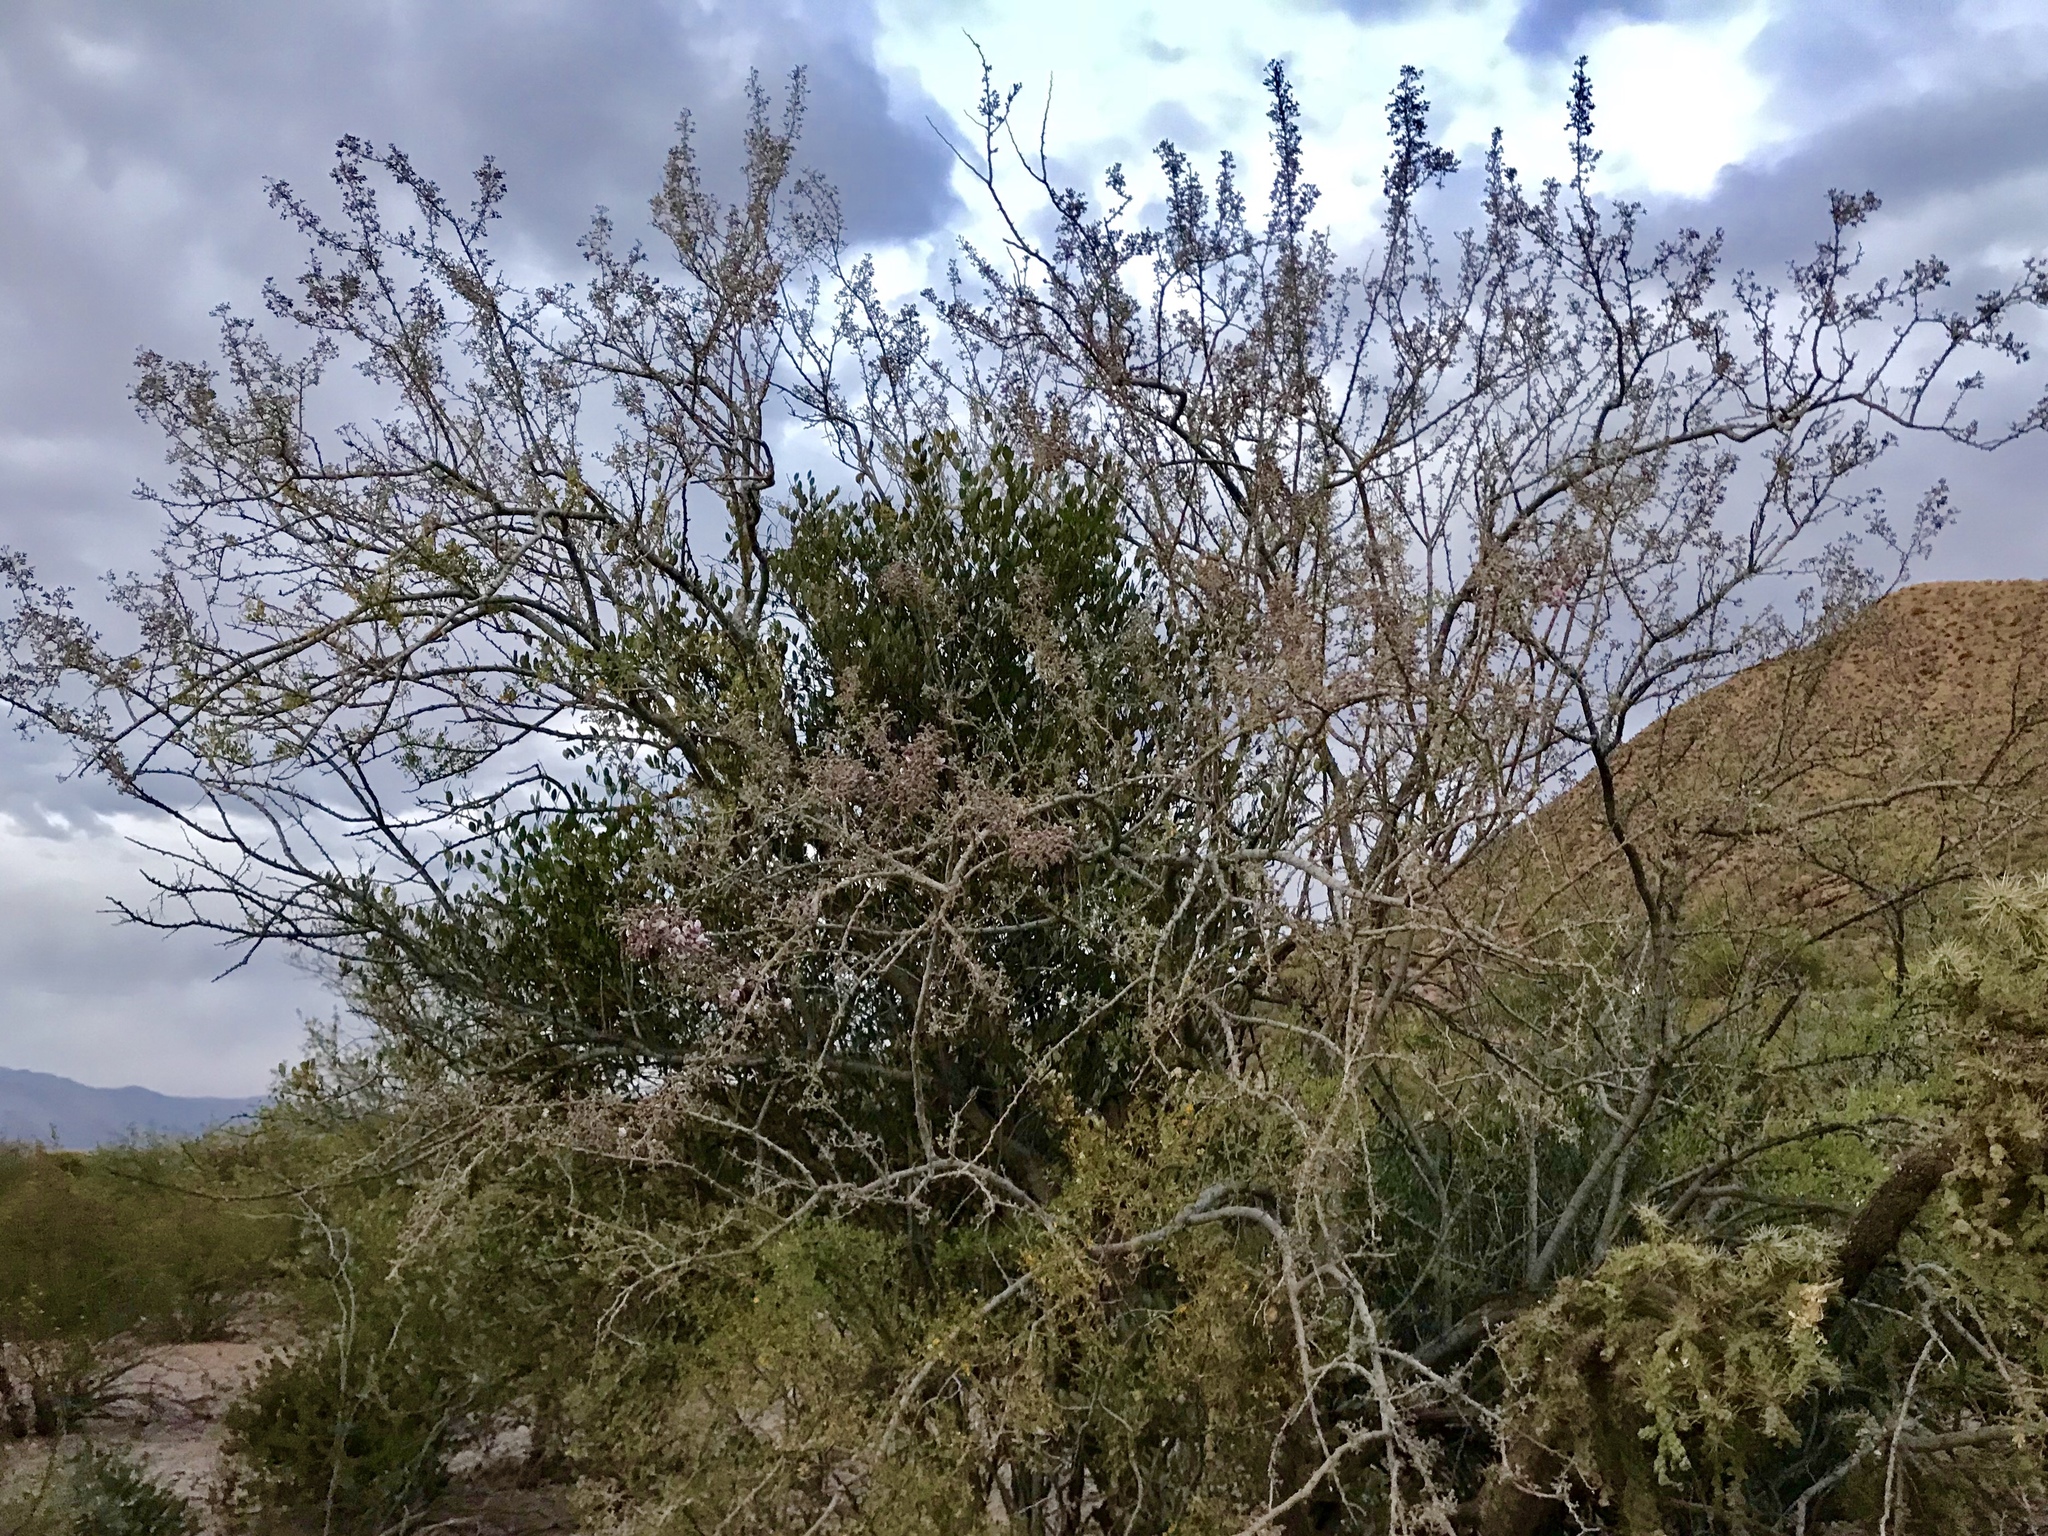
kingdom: Plantae
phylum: Tracheophyta
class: Magnoliopsida
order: Fabales
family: Fabaceae
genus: Olneya
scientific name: Olneya tesota
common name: Desert ironwood
